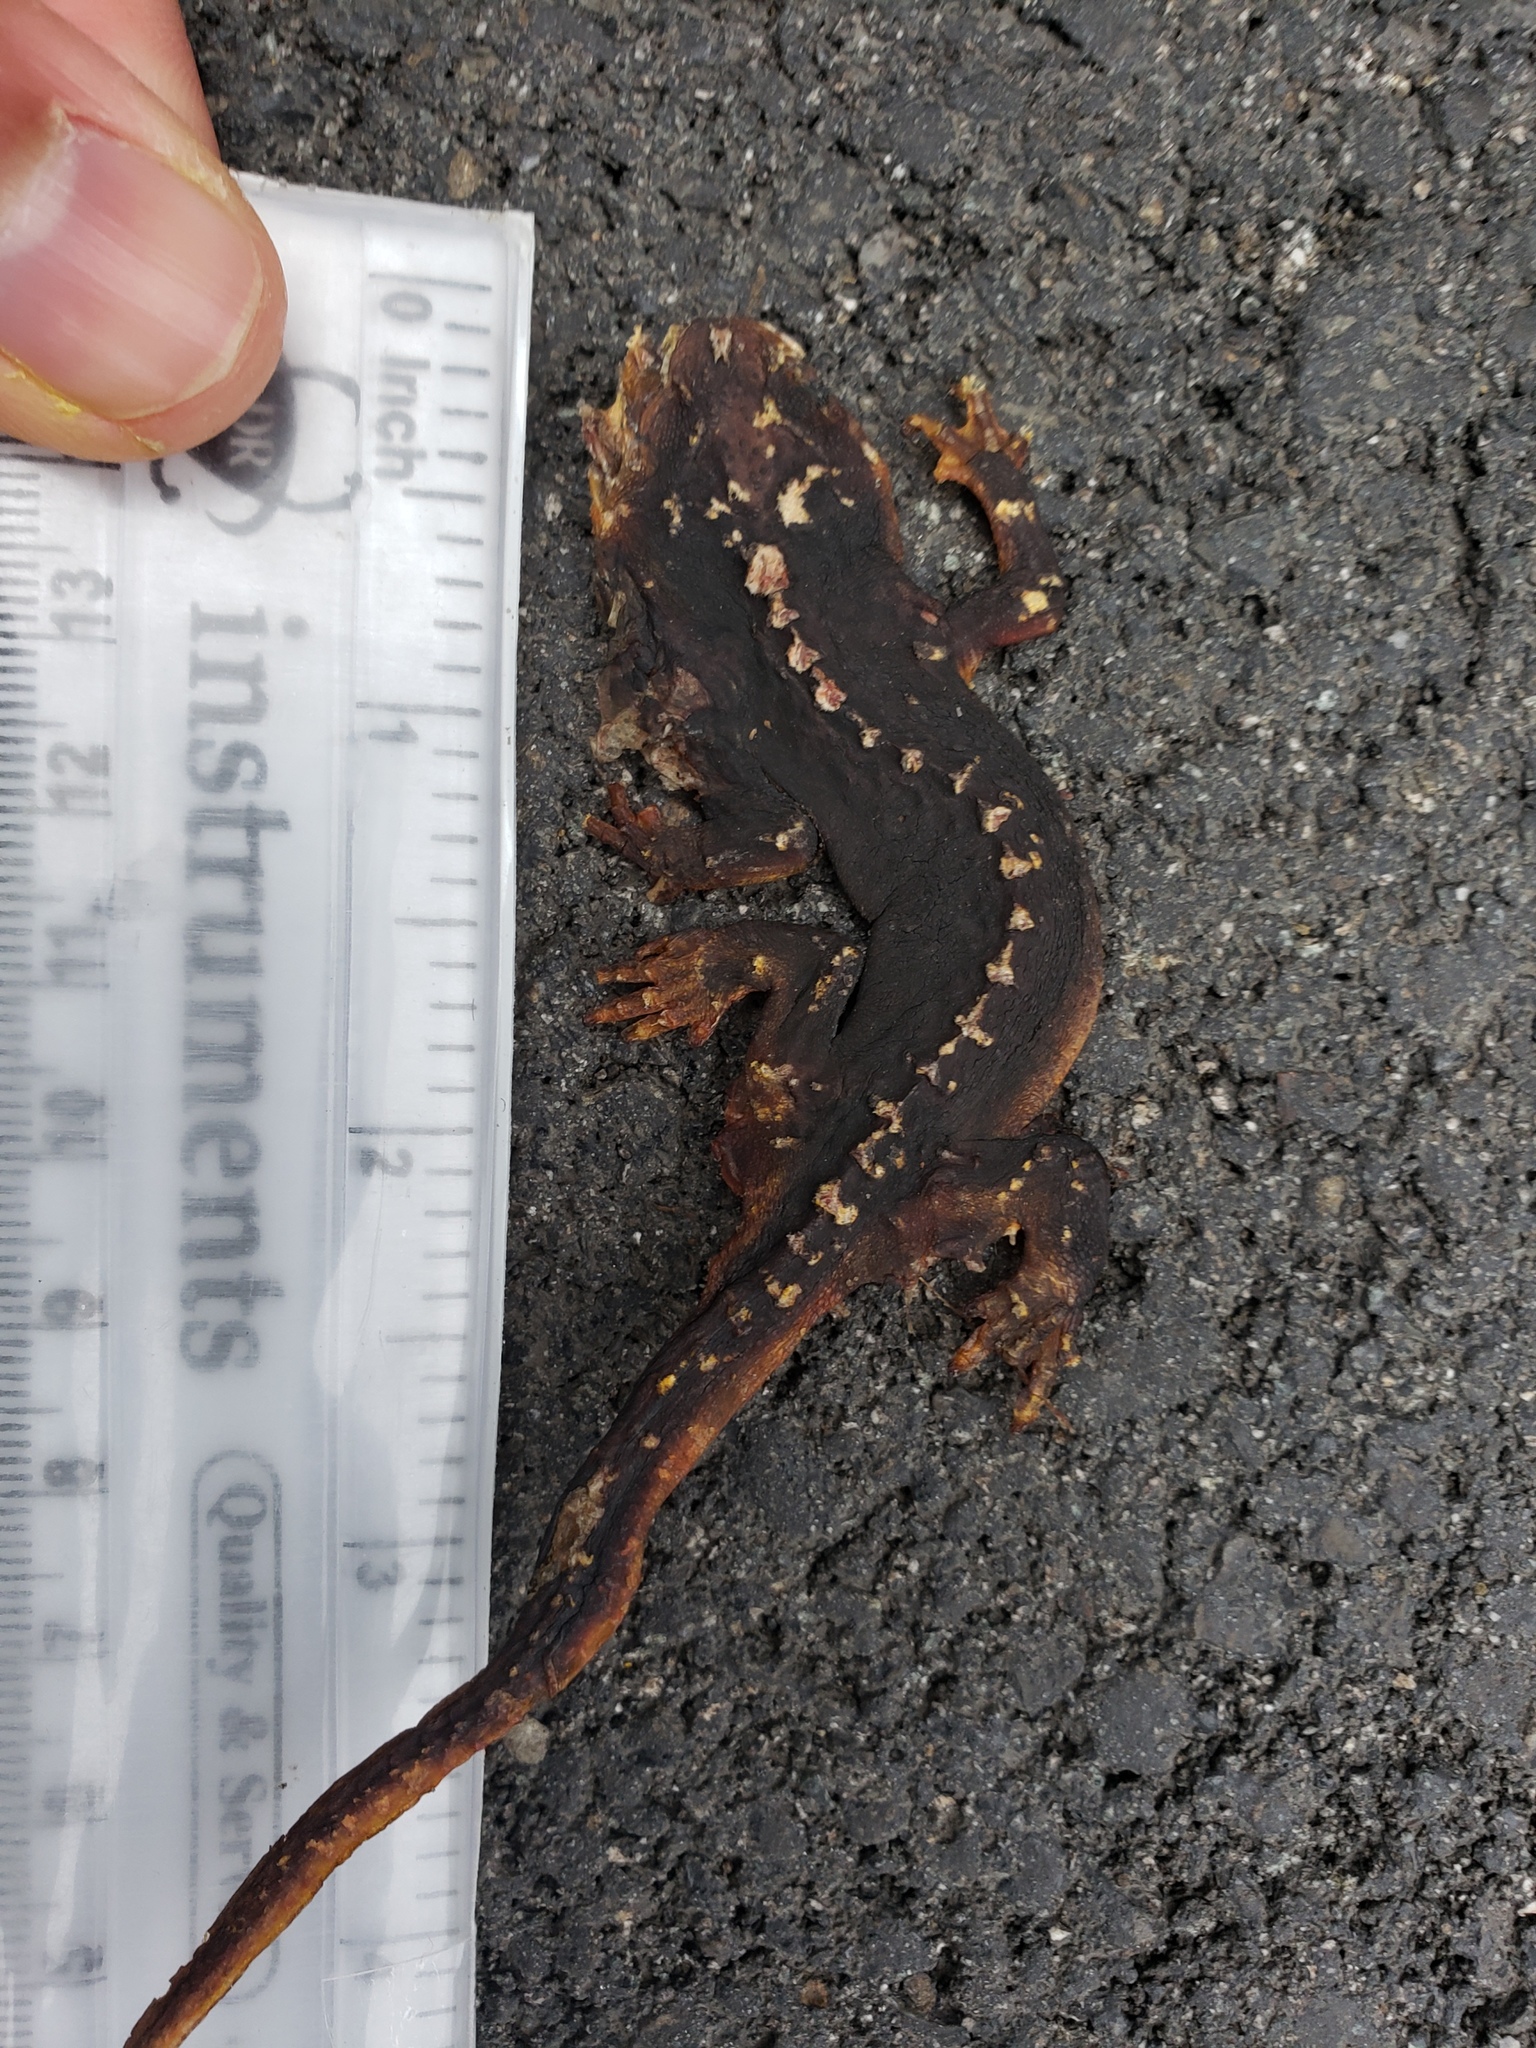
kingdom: Animalia
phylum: Chordata
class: Amphibia
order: Caudata
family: Salamandridae
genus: Taricha
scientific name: Taricha
